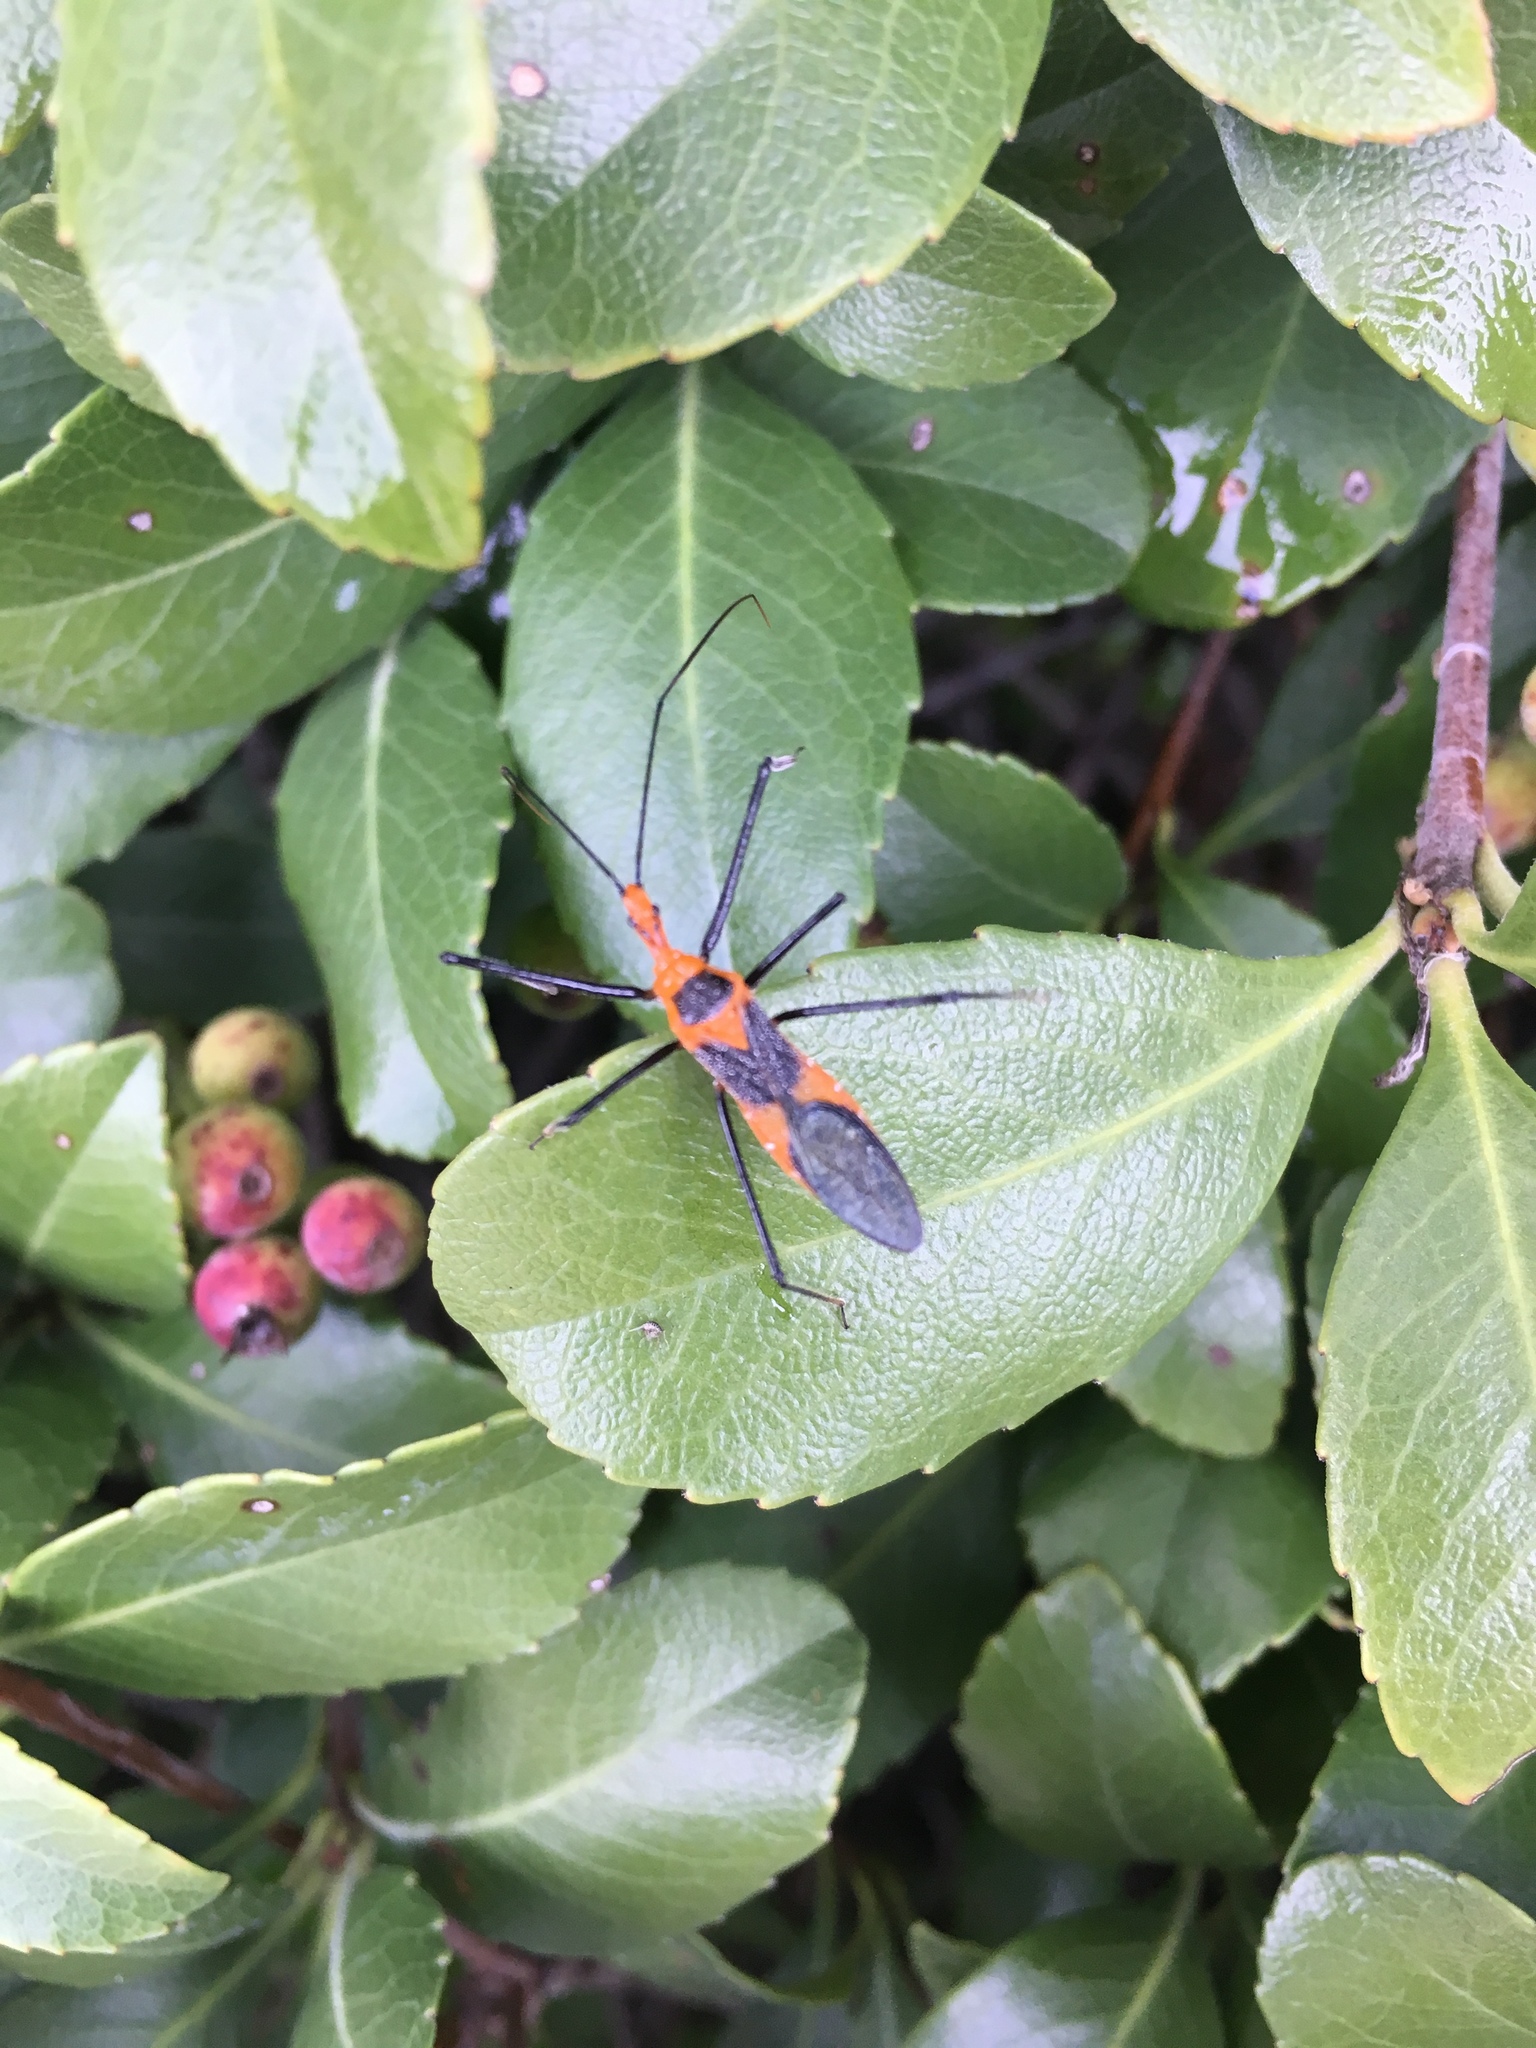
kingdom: Animalia
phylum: Arthropoda
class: Insecta
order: Hemiptera
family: Reduviidae
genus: Zelus
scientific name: Zelus longipes
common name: Milkweed assassin bug
